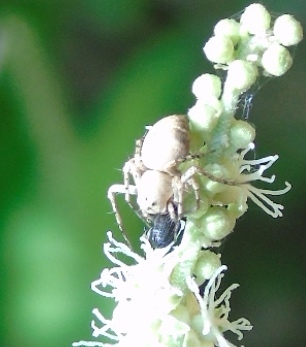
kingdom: Animalia
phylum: Arthropoda
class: Arachnida
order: Araneae
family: Oxyopidae
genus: Oxyopes
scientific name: Oxyopes
